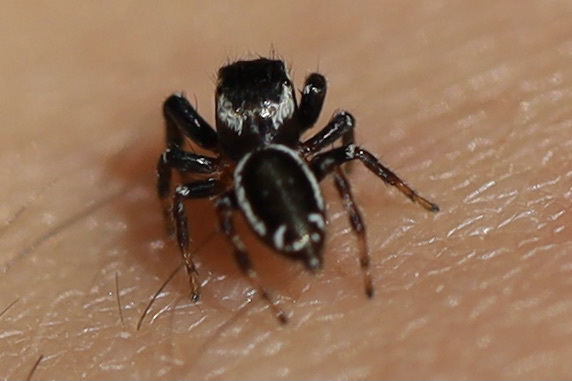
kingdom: Animalia
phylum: Arthropoda
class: Arachnida
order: Araneae
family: Salticidae
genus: Metaphidippus
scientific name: Metaphidippus manni
